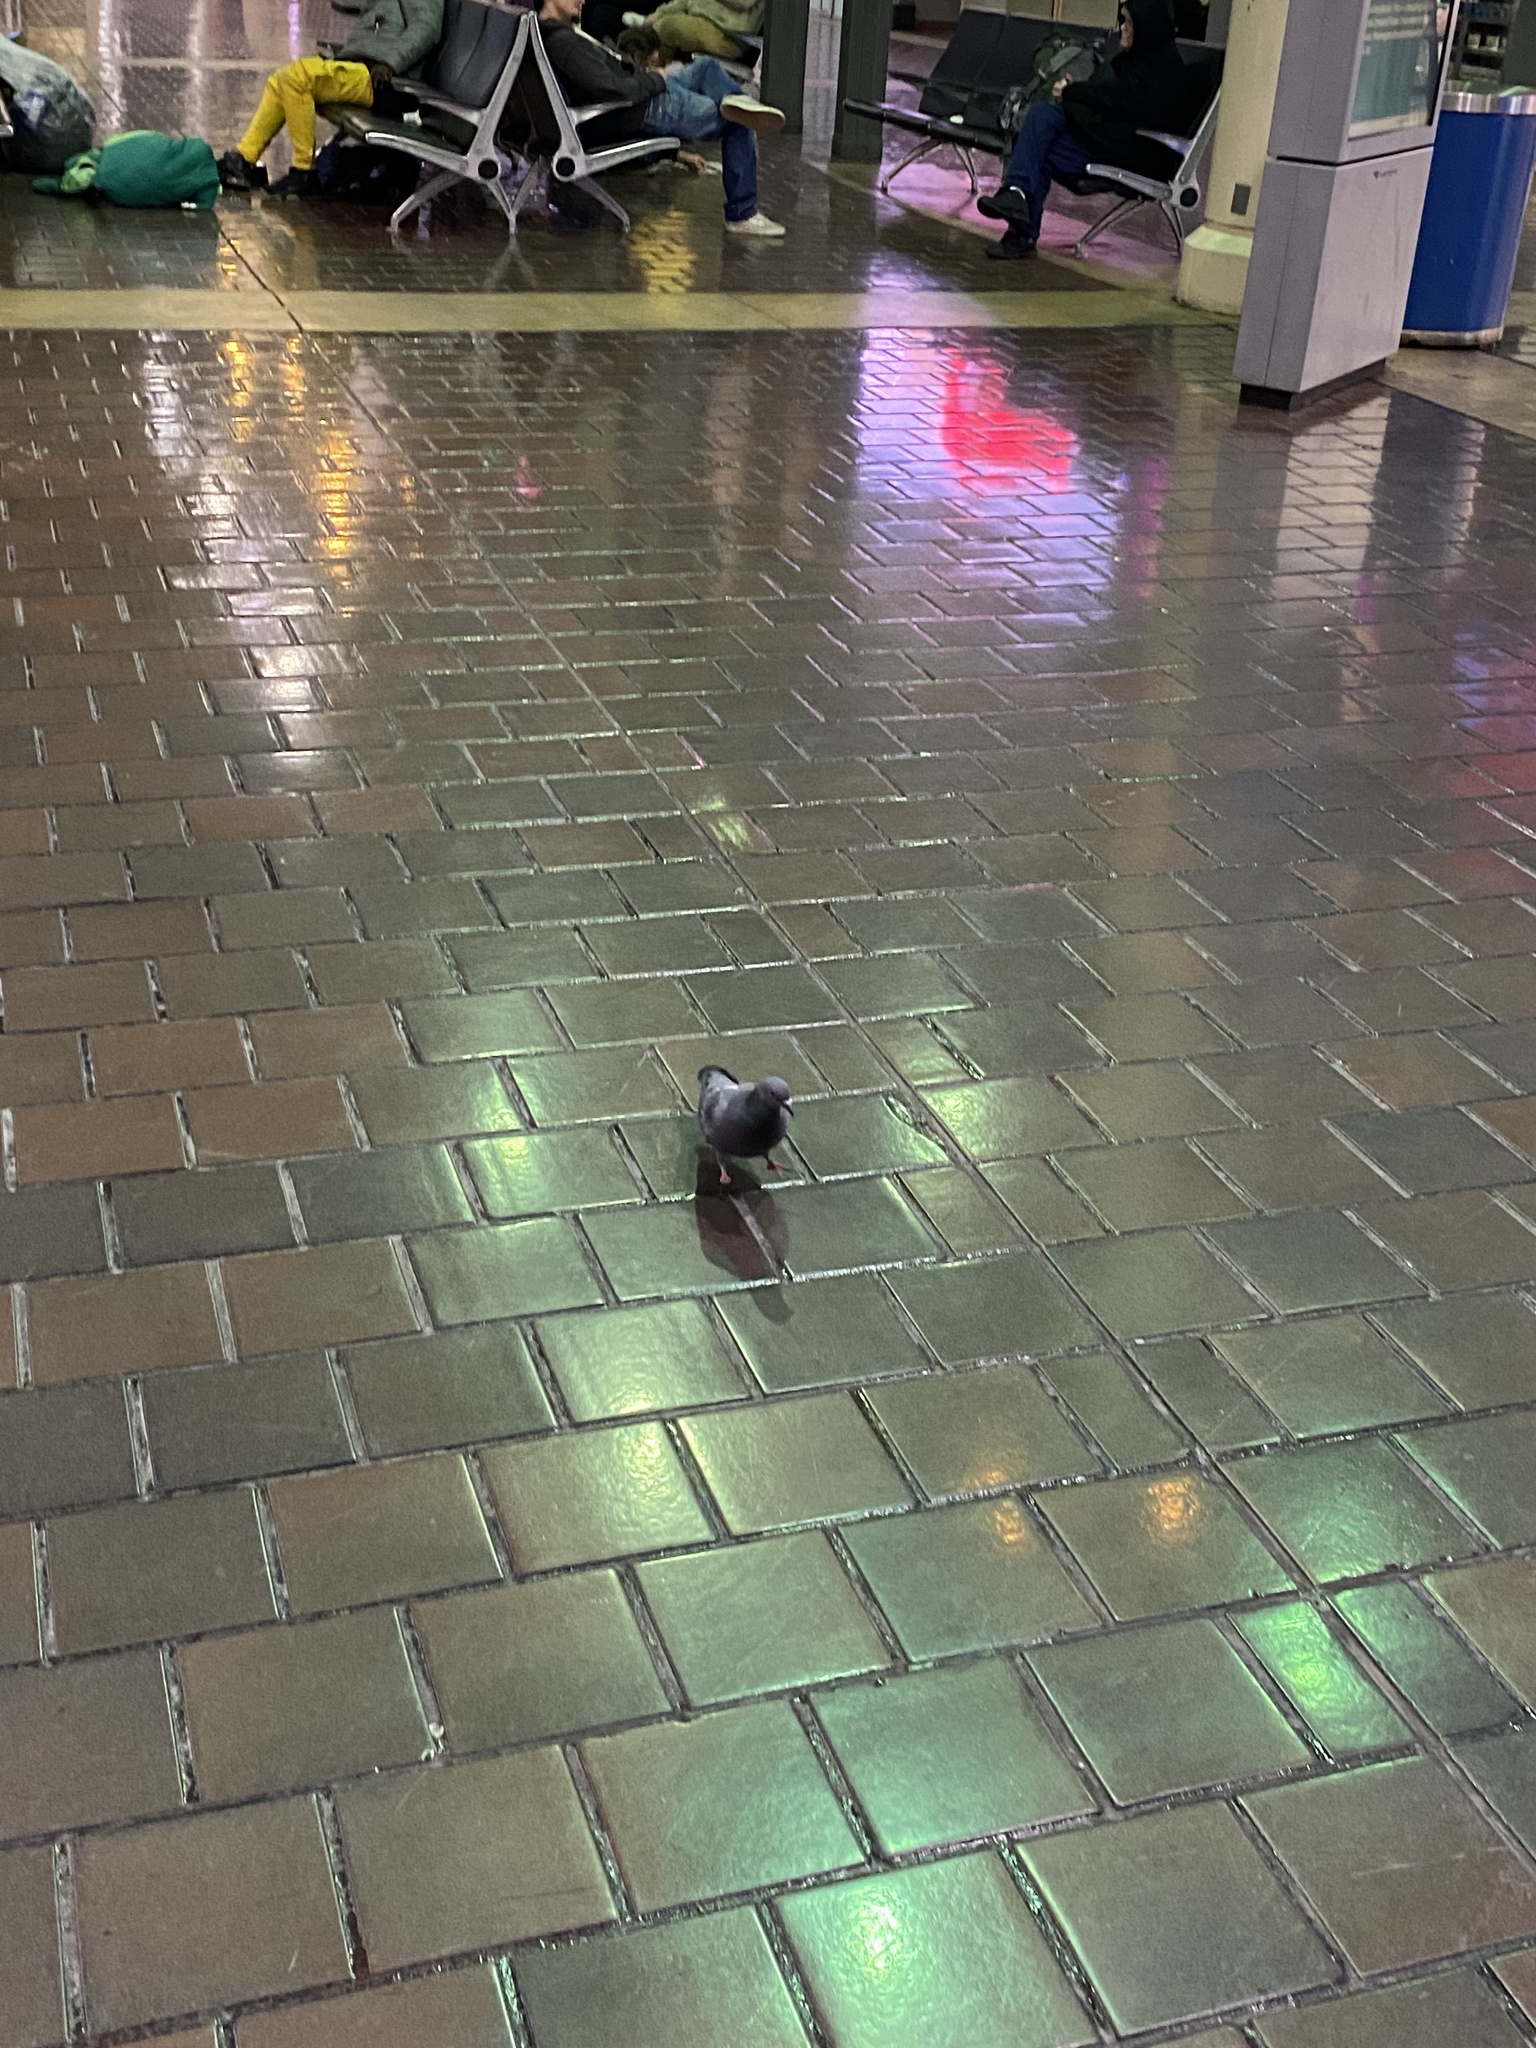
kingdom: Animalia
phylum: Chordata
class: Aves
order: Columbiformes
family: Columbidae
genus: Columba
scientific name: Columba livia
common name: Rock pigeon
